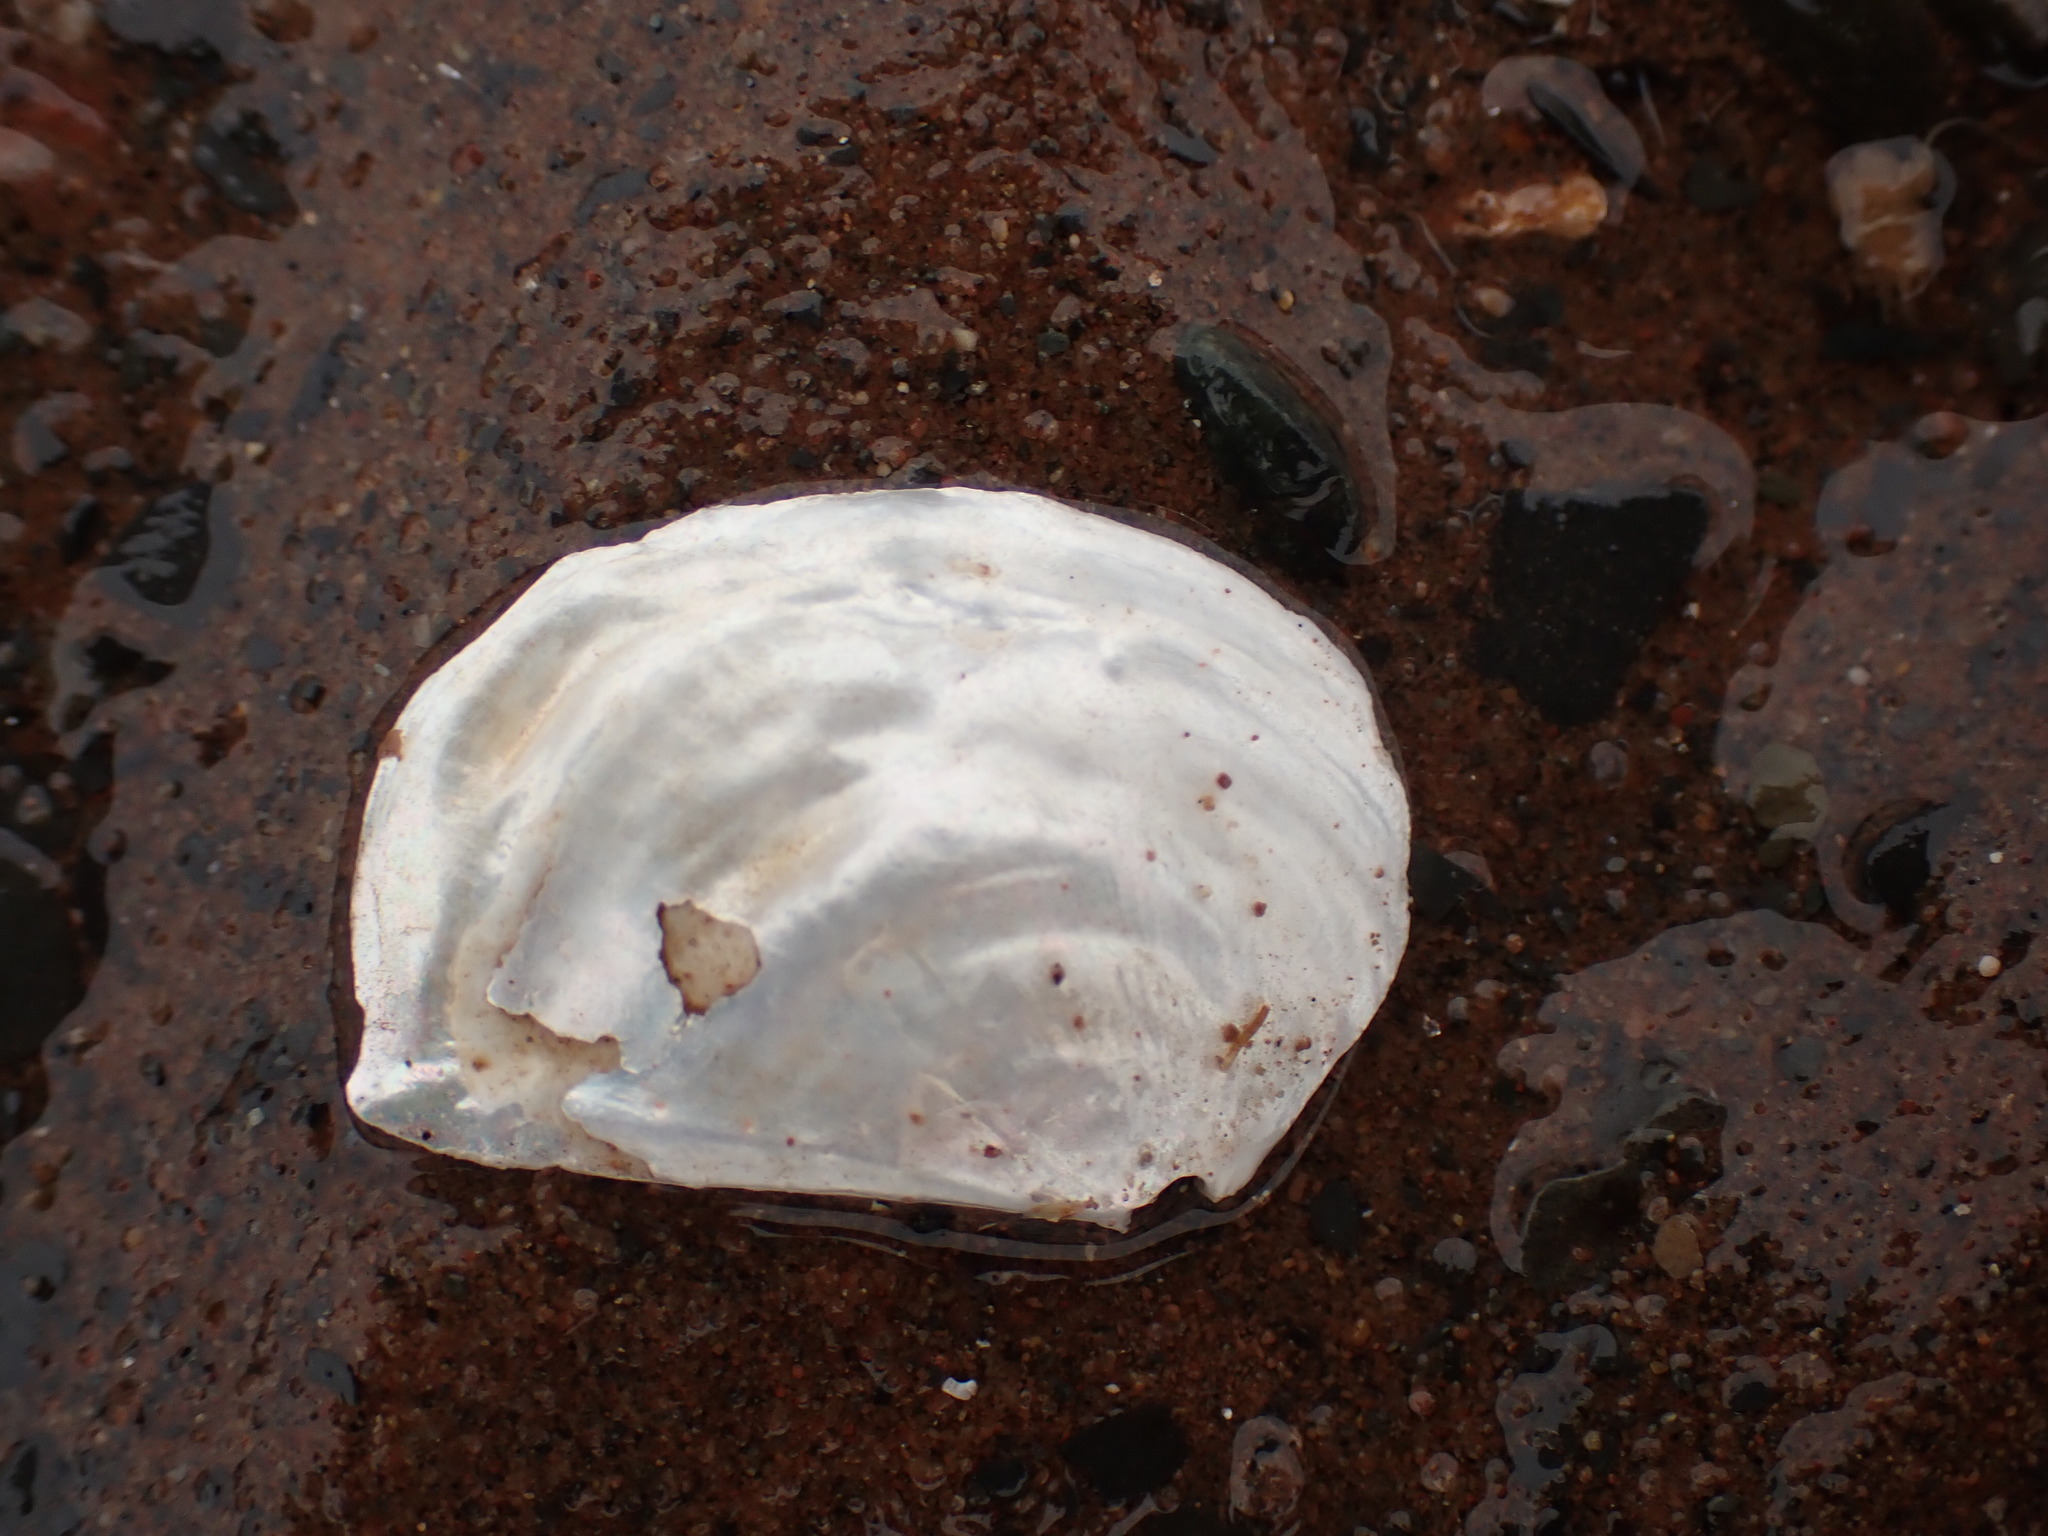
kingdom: Animalia
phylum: Mollusca
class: Bivalvia
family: Pandoridae
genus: Pandora
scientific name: Pandora gouldiana
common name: Rounded pandora
